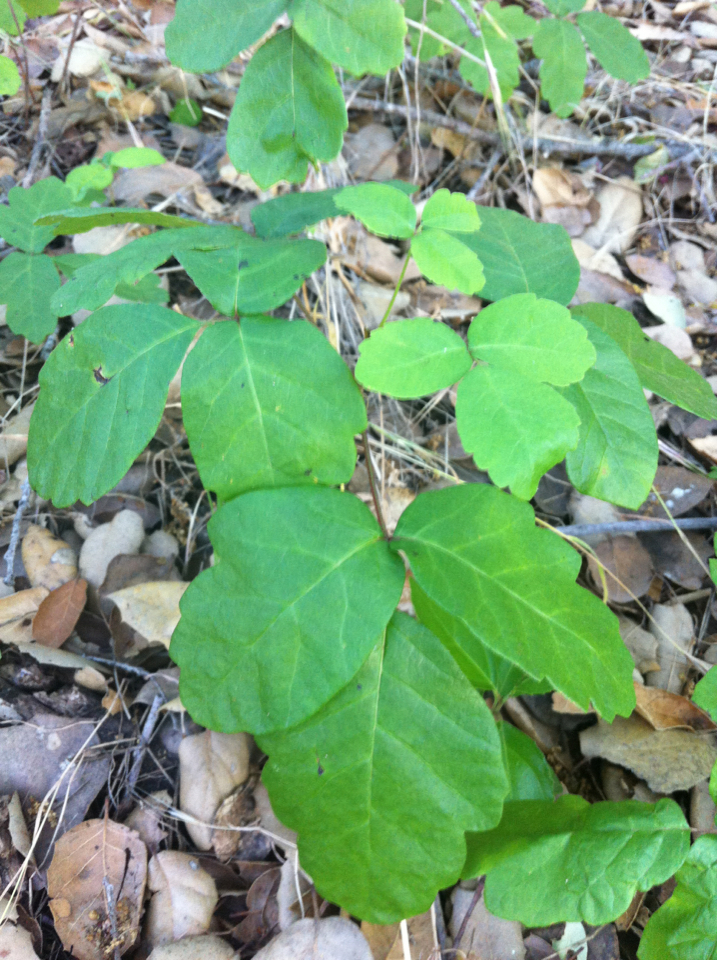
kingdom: Plantae
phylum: Tracheophyta
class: Magnoliopsida
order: Sapindales
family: Anacardiaceae
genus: Toxicodendron
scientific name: Toxicodendron diversilobum
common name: Pacific poison-oak
